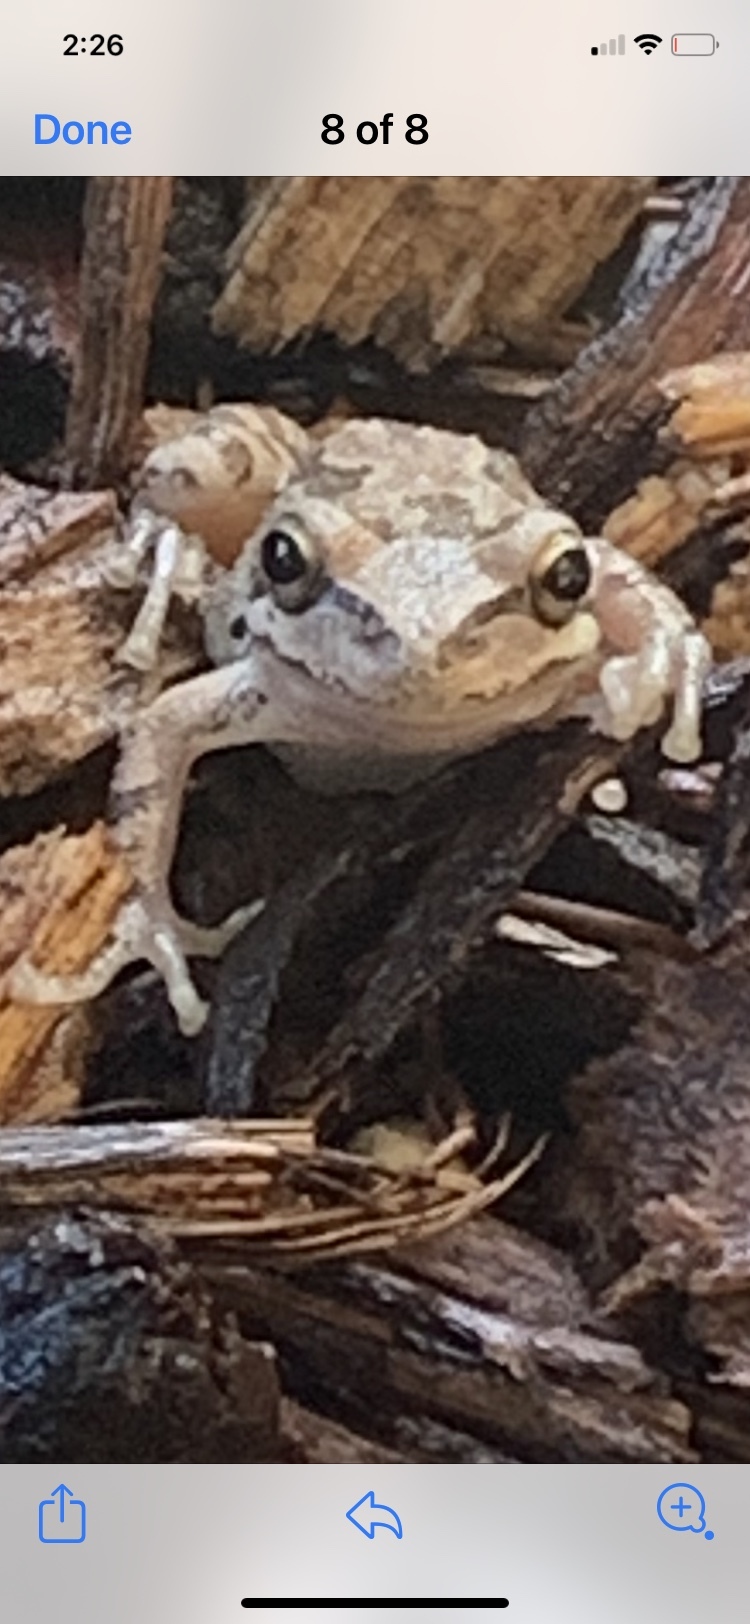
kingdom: Animalia
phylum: Chordata
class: Amphibia
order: Anura
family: Hylidae
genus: Pseudacris
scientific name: Pseudacris regilla
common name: Pacific chorus frog
